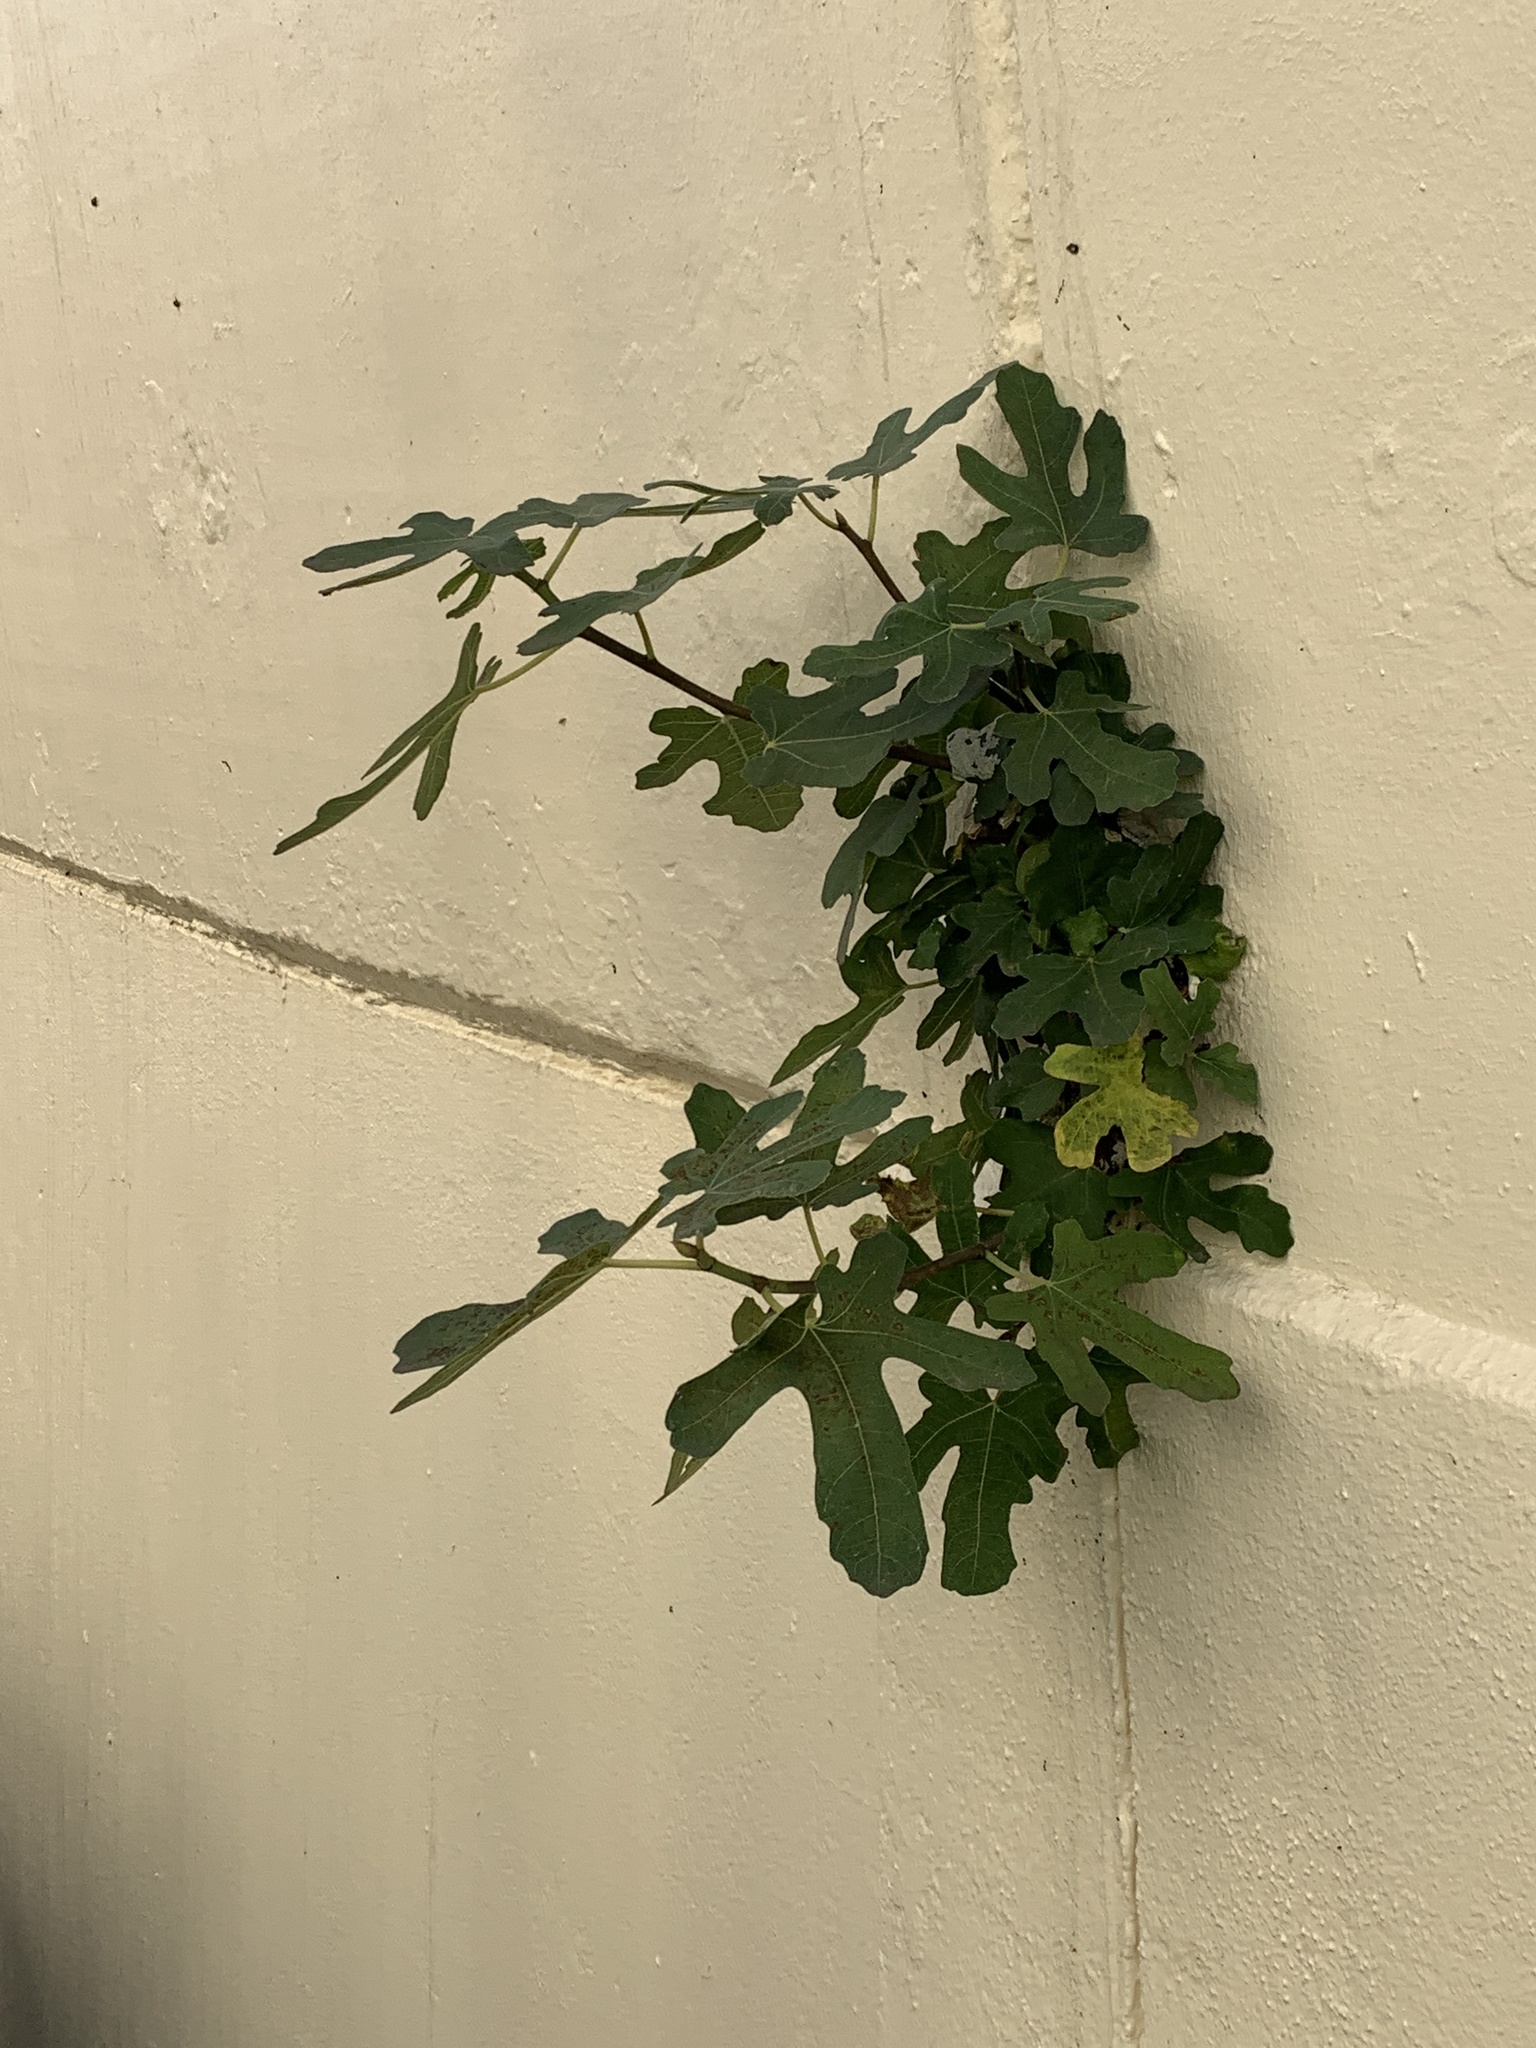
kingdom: Plantae
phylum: Tracheophyta
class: Magnoliopsida
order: Rosales
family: Moraceae
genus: Ficus
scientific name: Ficus carica
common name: Fig
